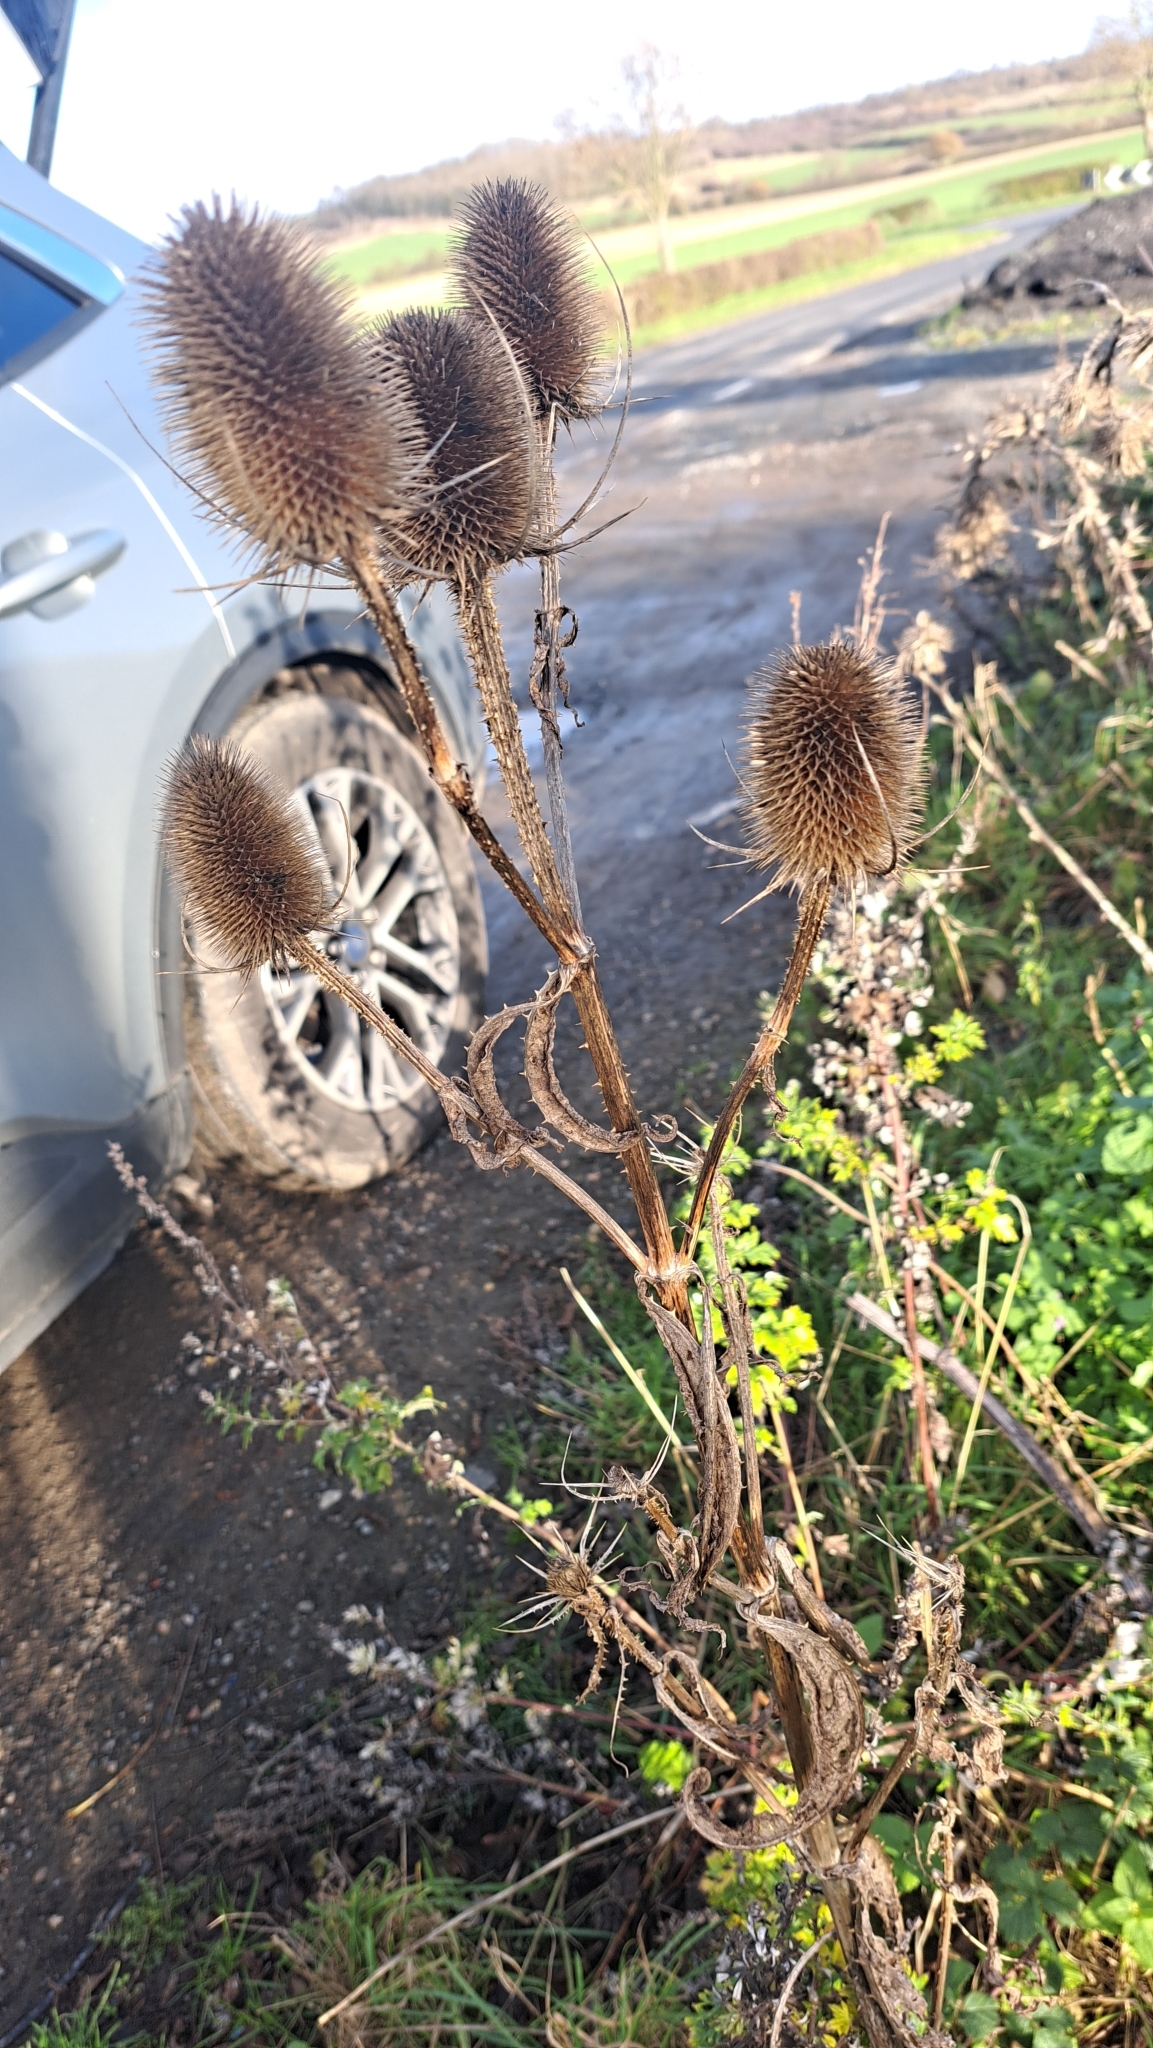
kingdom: Plantae
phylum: Tracheophyta
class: Magnoliopsida
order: Dipsacales
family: Caprifoliaceae
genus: Dipsacus
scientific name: Dipsacus fullonum
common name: Teasel
